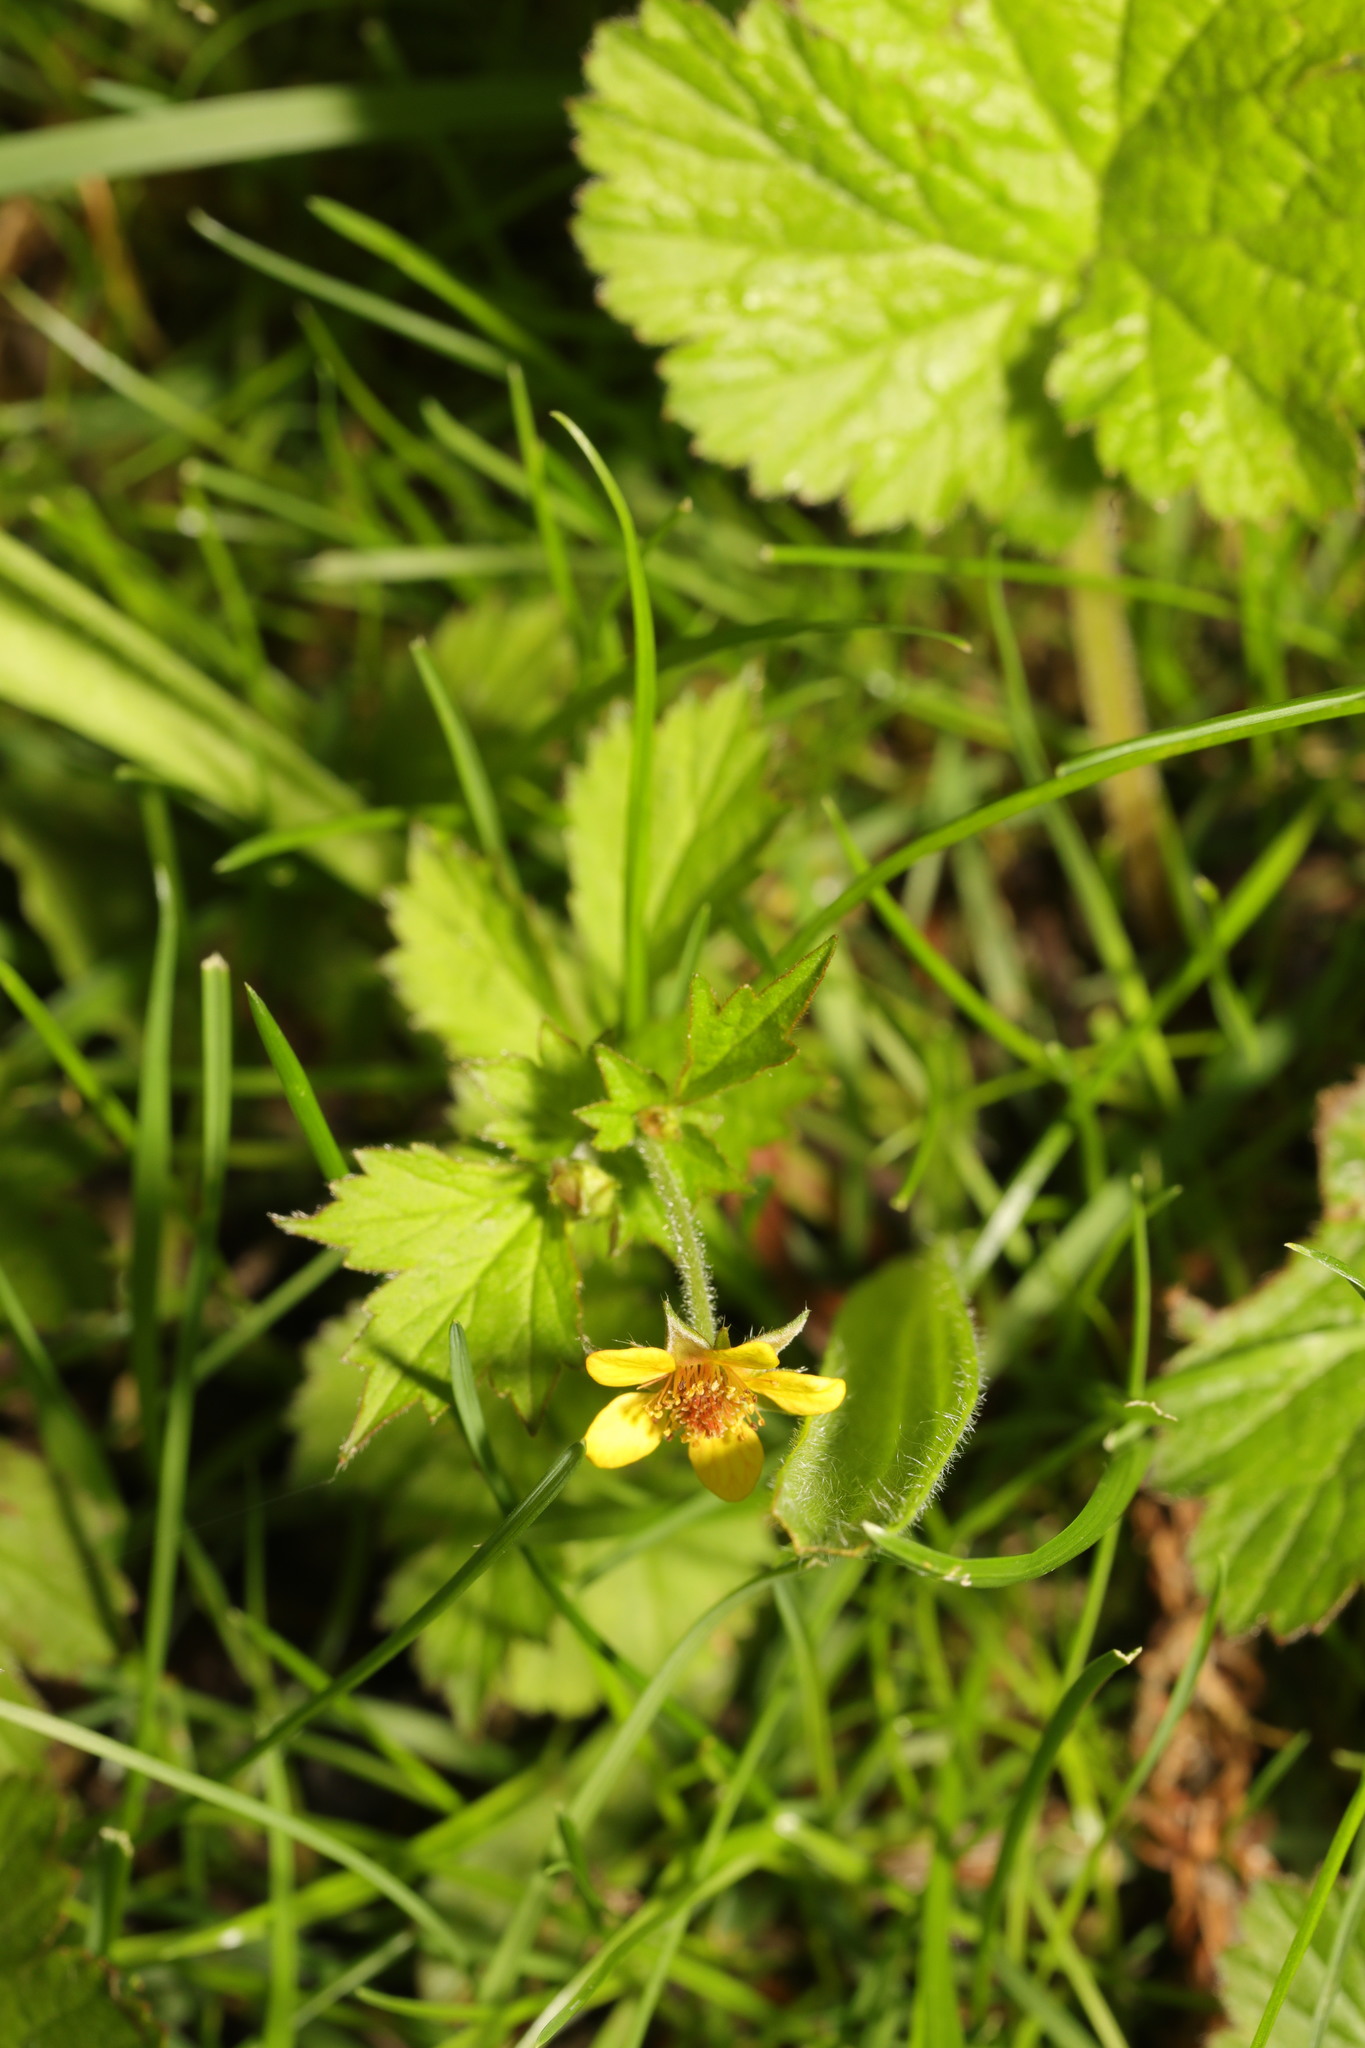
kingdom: Plantae
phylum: Tracheophyta
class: Magnoliopsida
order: Rosales
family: Rosaceae
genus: Geum
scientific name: Geum urbanum
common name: Wood avens
